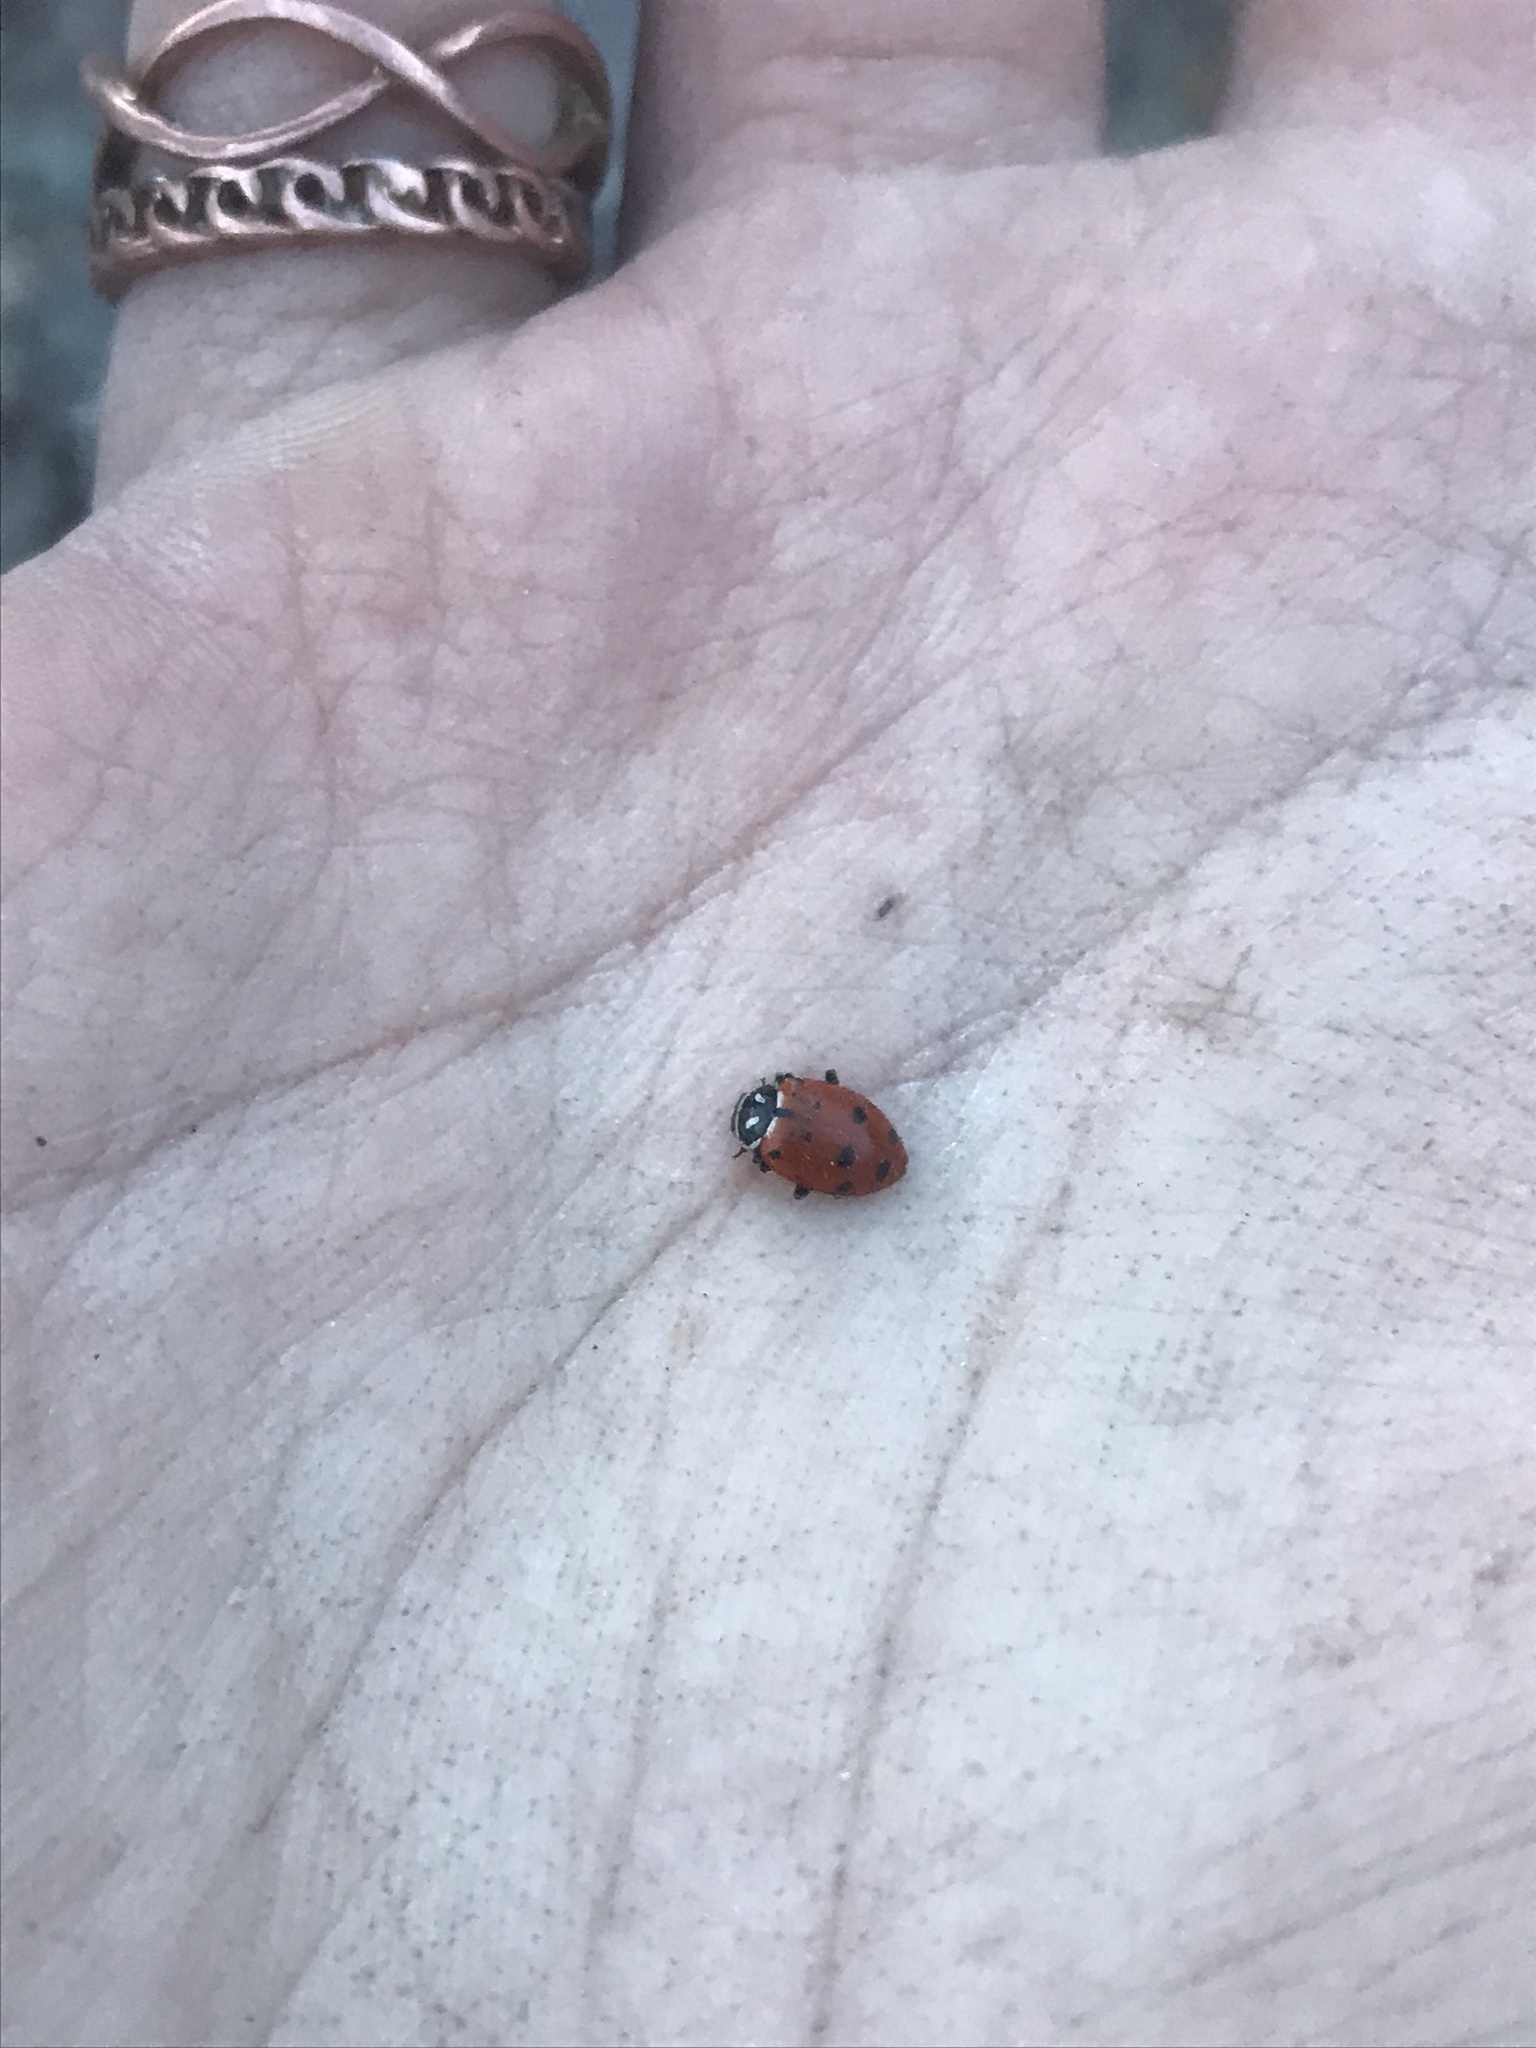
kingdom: Animalia
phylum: Arthropoda
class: Insecta
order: Coleoptera
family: Coccinellidae
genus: Hippodamia
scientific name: Hippodamia convergens
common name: Convergent lady beetle
